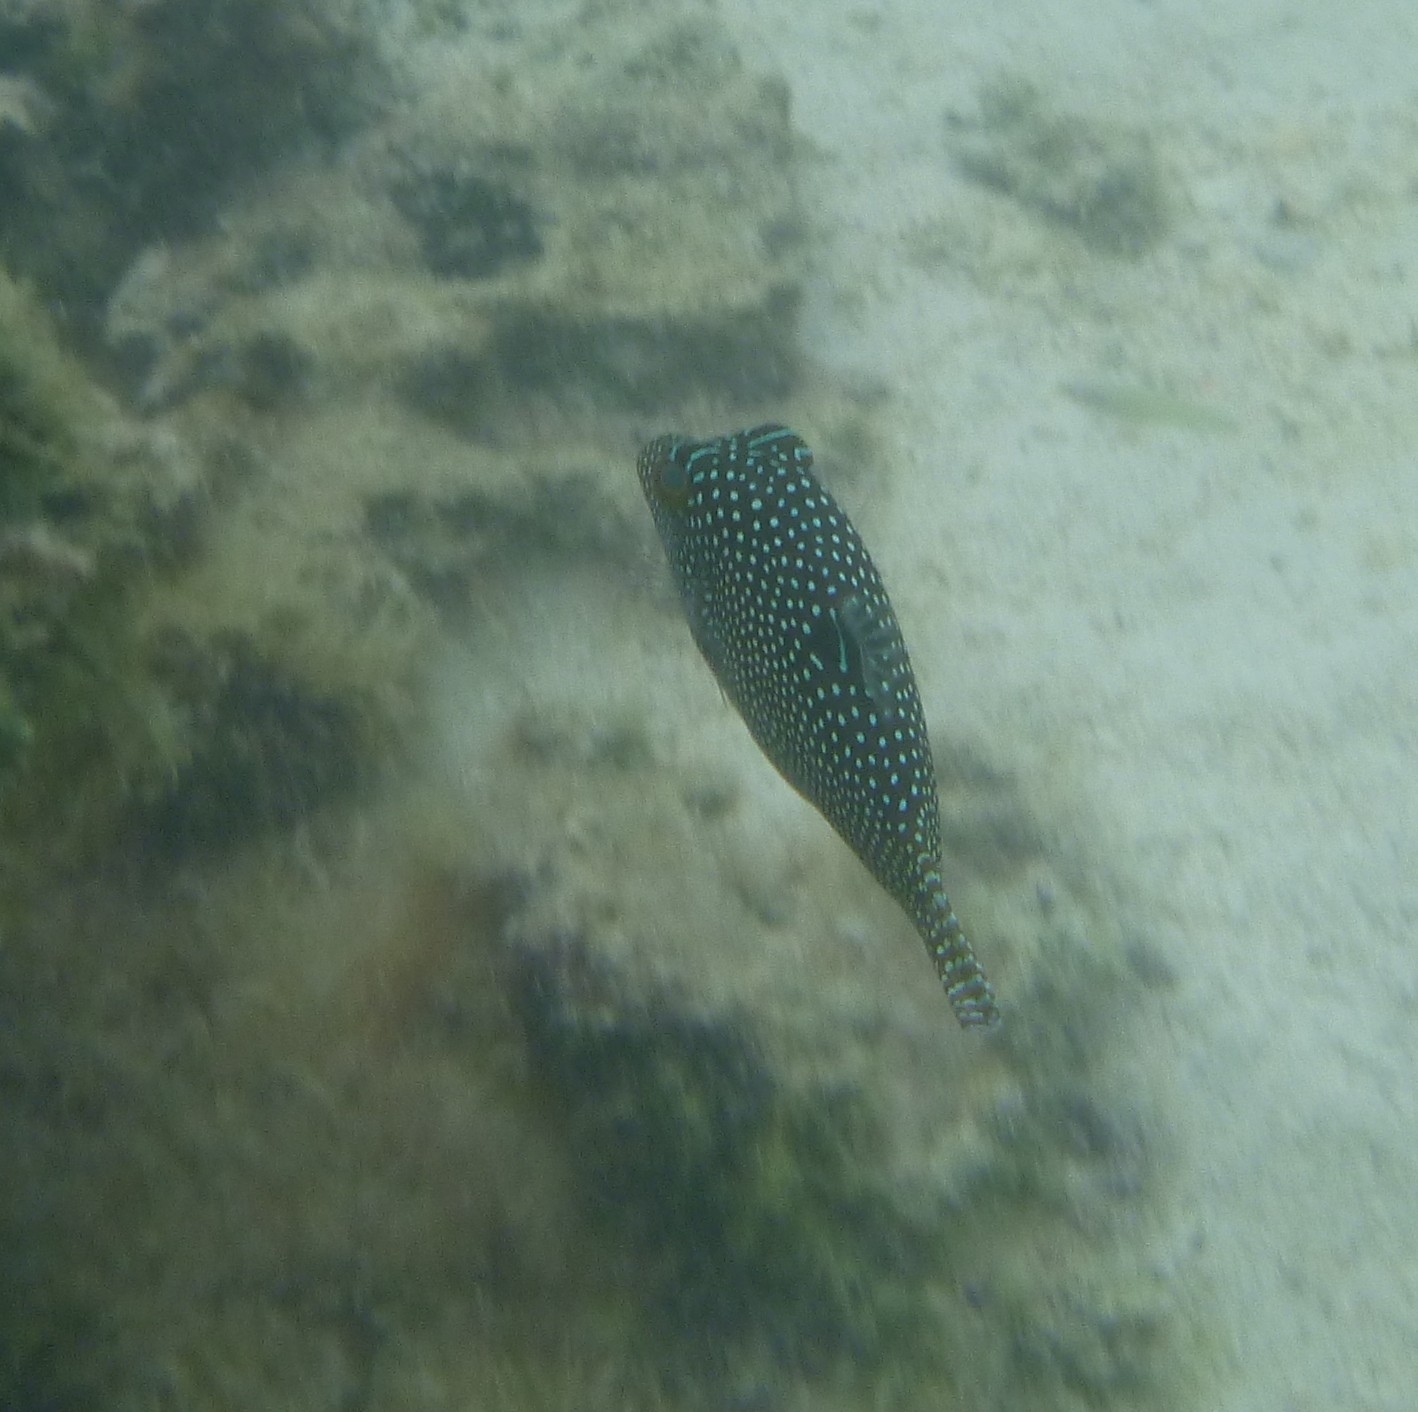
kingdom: Animalia
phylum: Chordata
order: Tetraodontiformes
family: Tetraodontidae
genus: Canthigaster
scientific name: Canthigaster solandri
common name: False-eye toby
